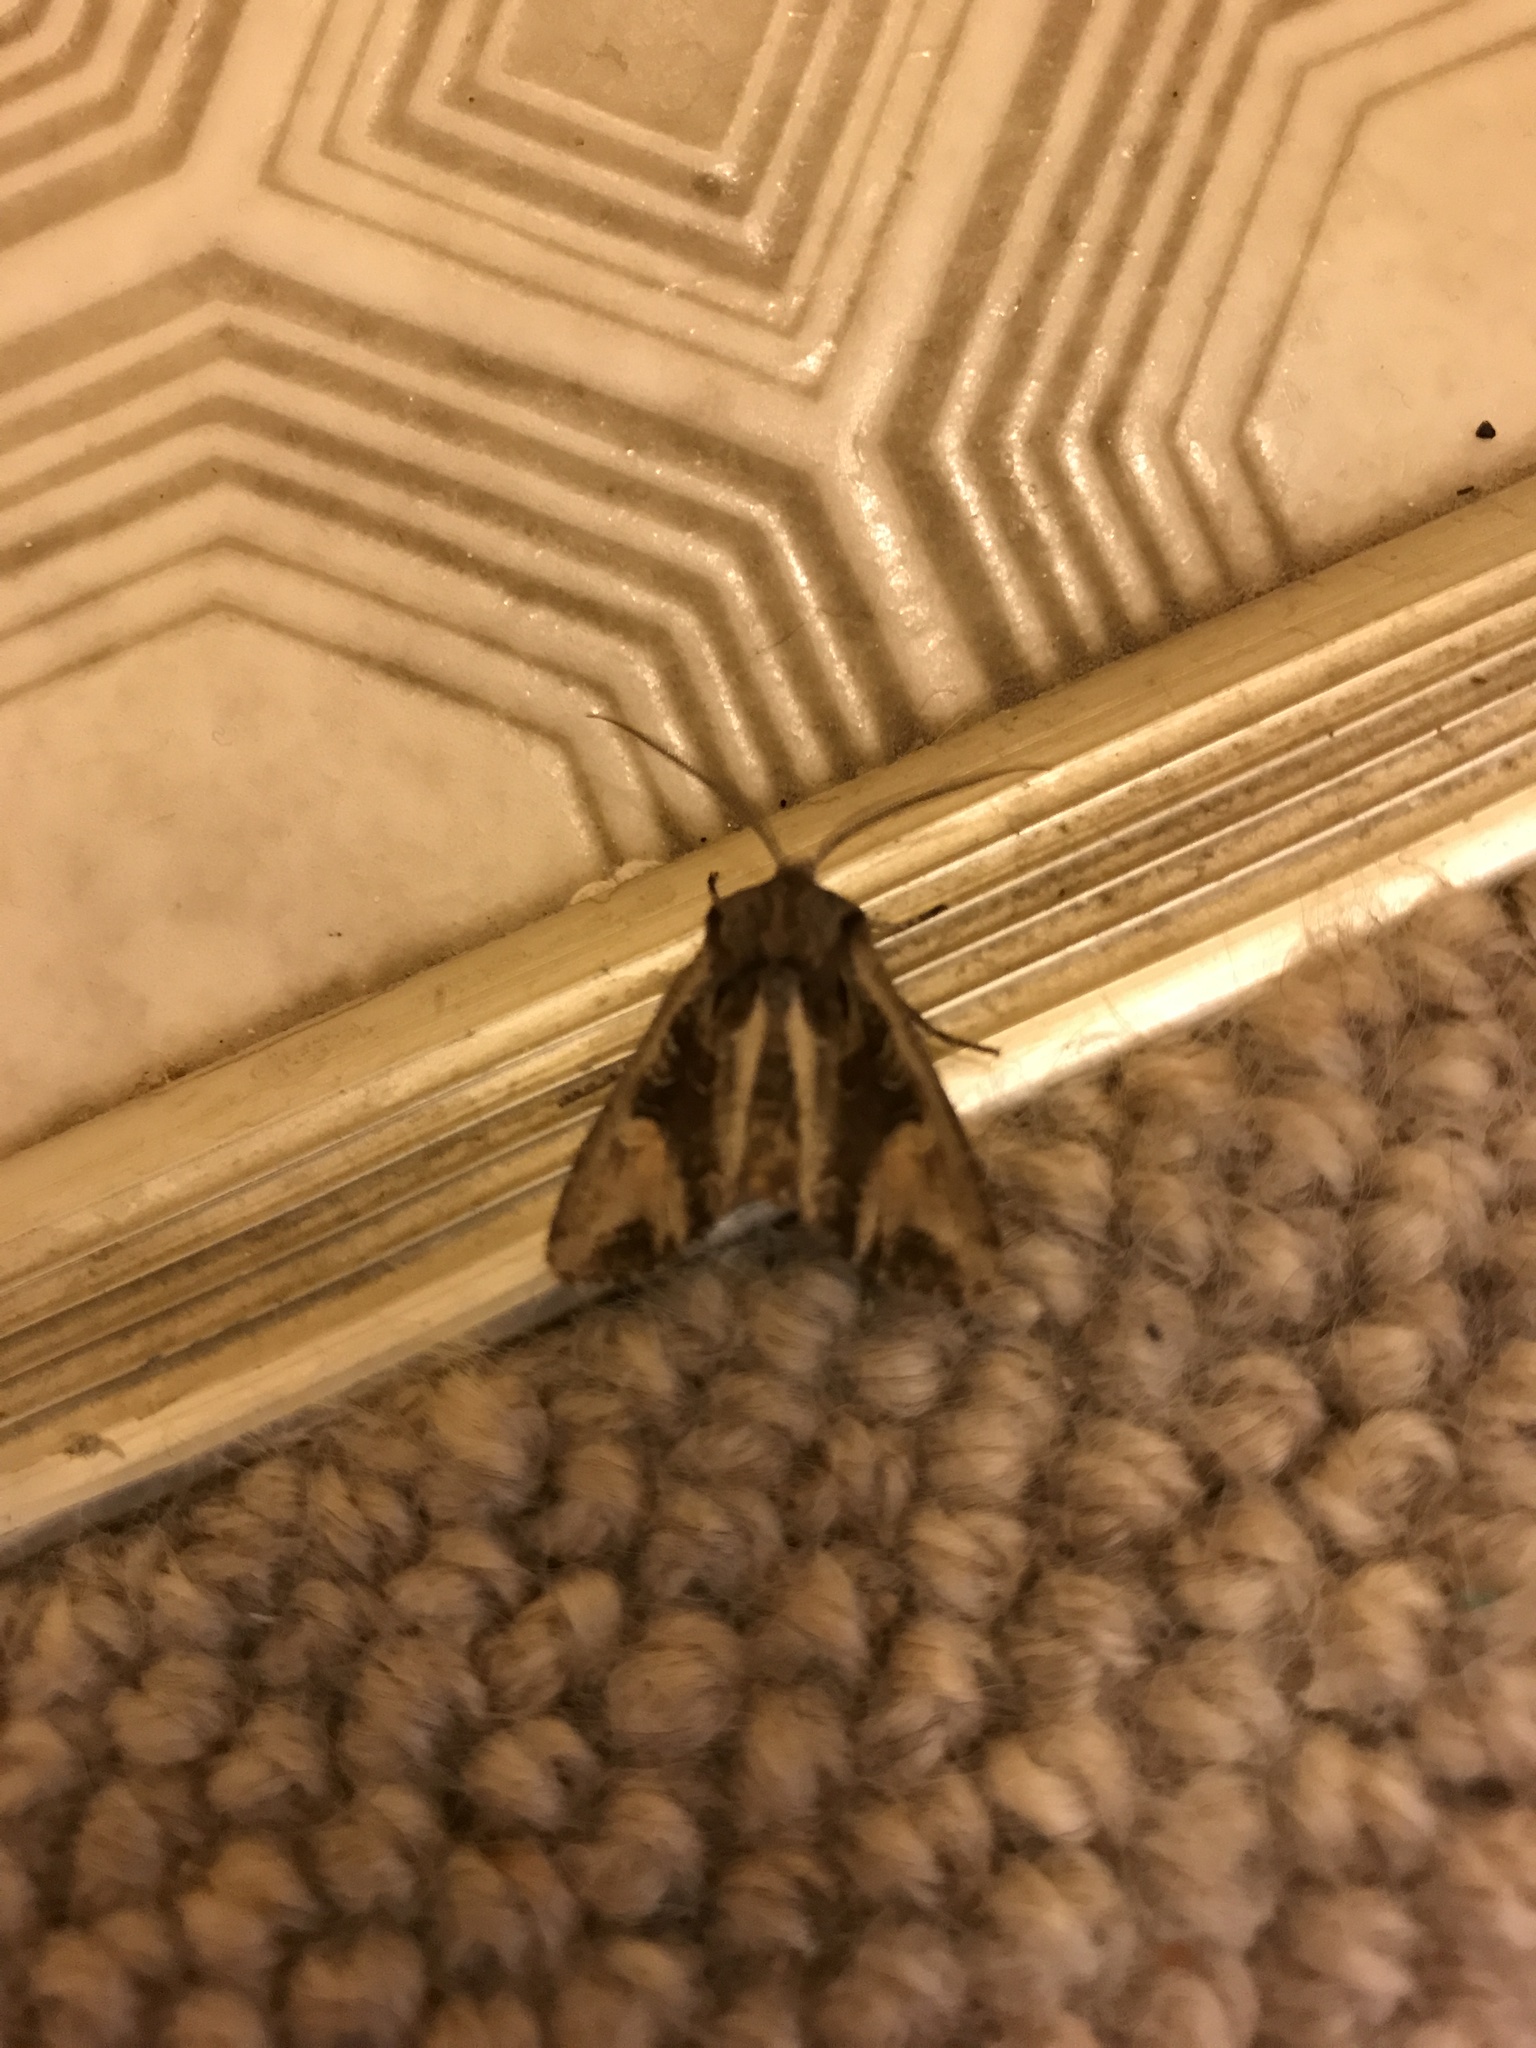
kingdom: Animalia
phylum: Arthropoda
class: Insecta
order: Lepidoptera
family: Noctuidae
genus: Ichneutica
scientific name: Ichneutica
